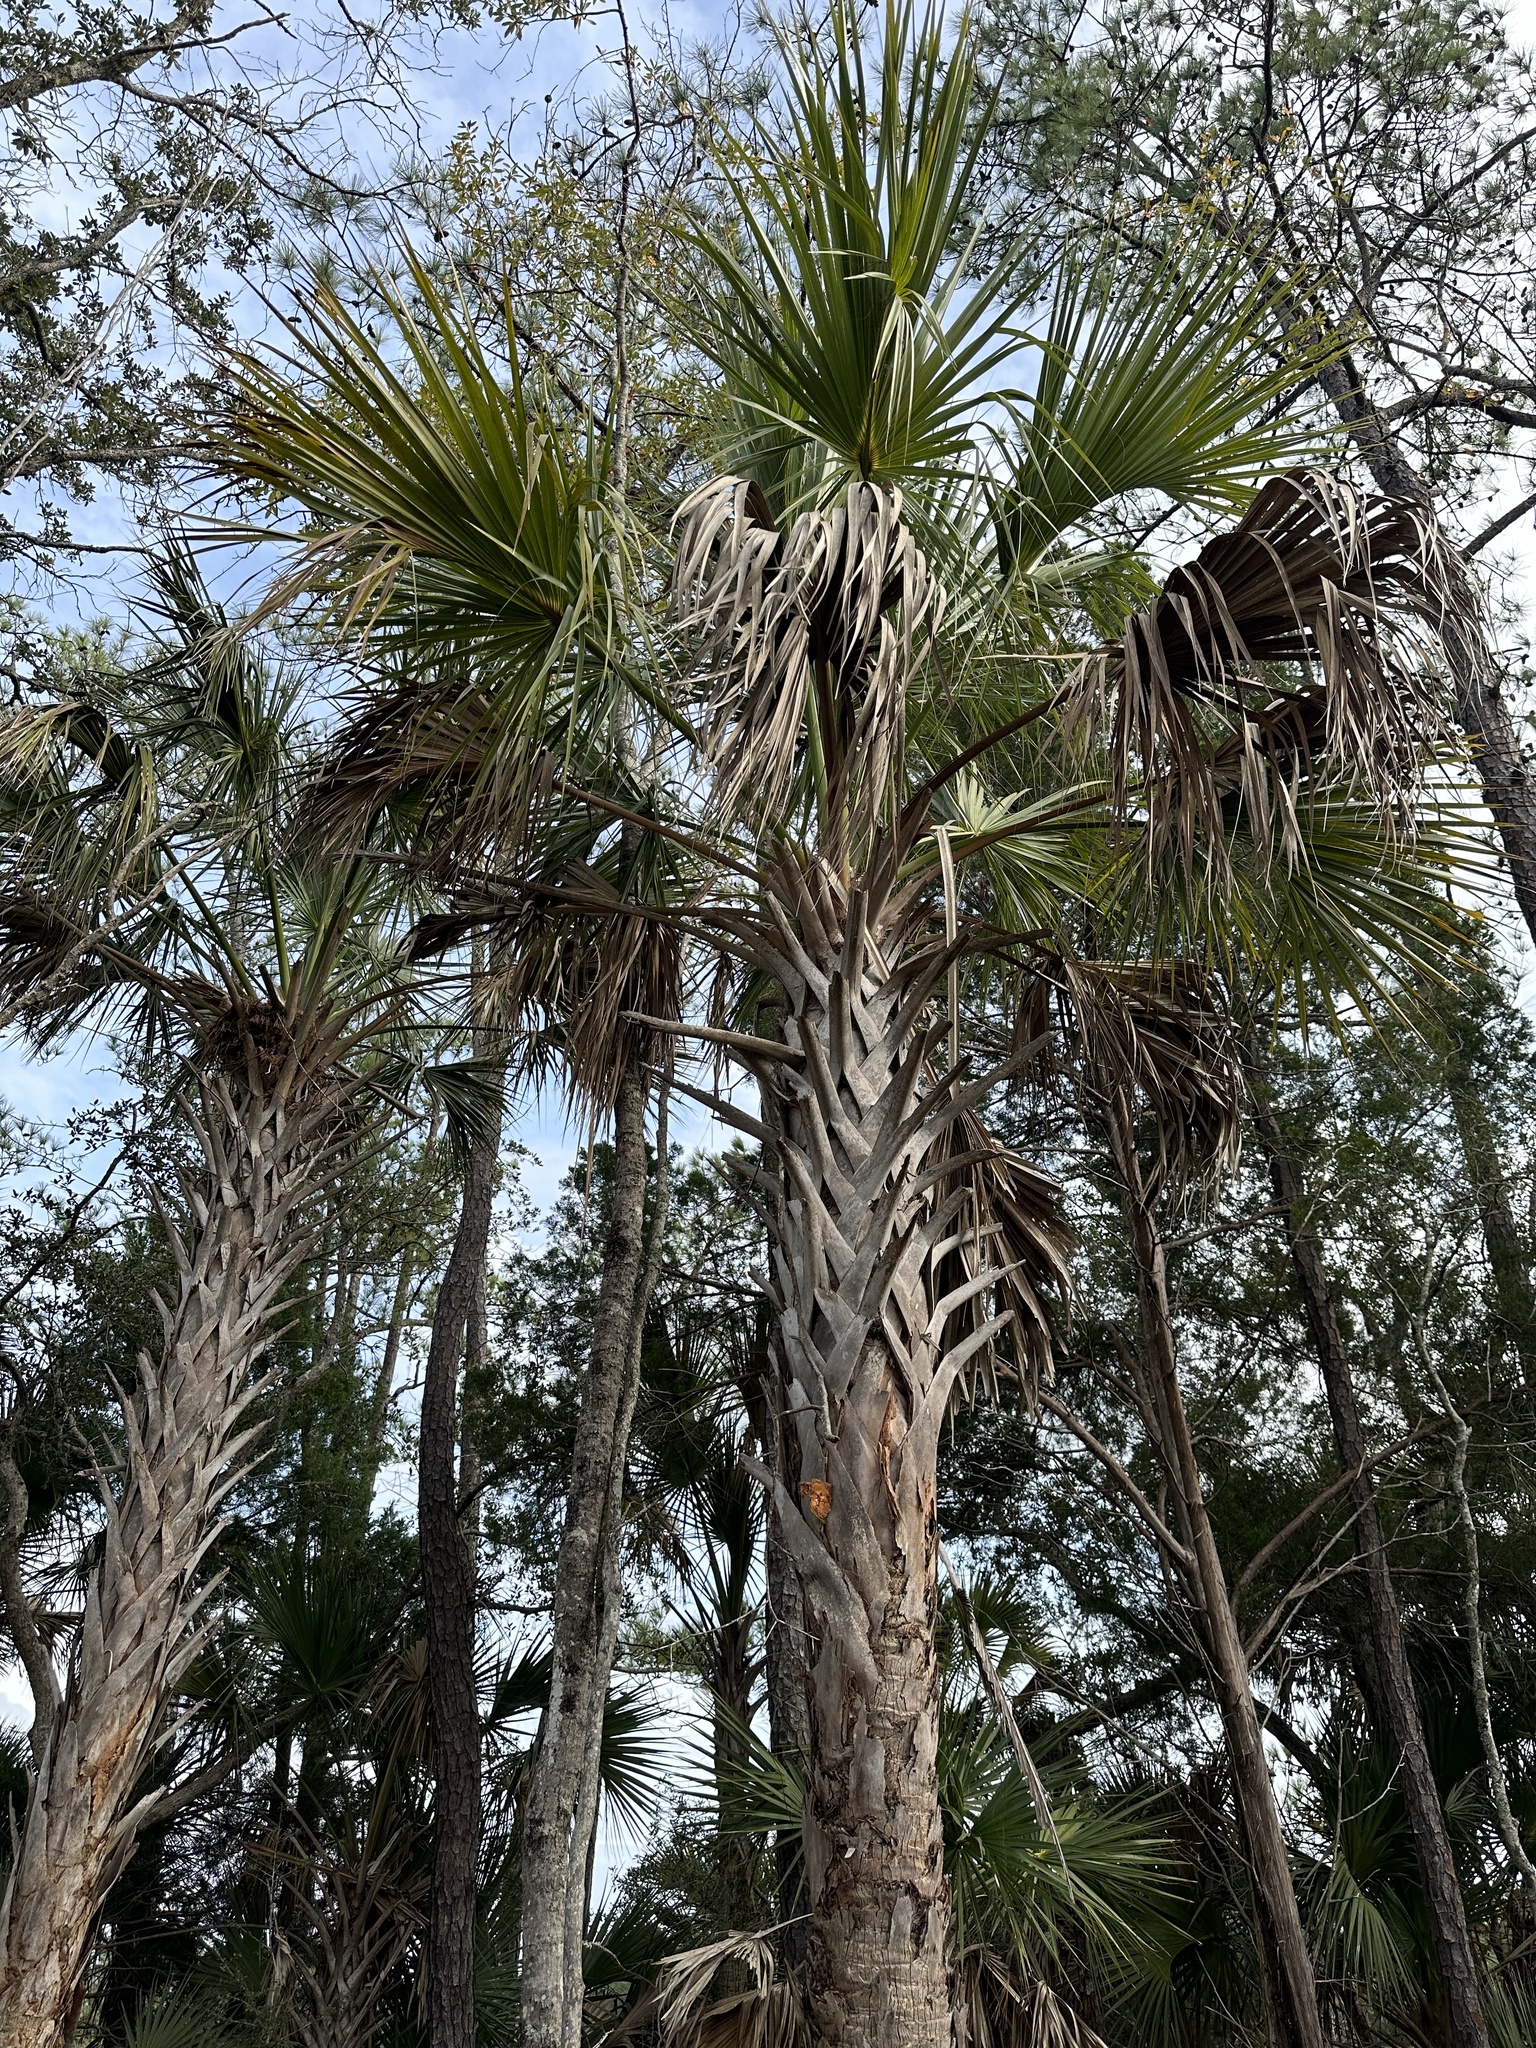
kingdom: Plantae
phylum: Tracheophyta
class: Liliopsida
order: Arecales
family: Arecaceae
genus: Sabal
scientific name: Sabal palmetto
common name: Blue palmetto
